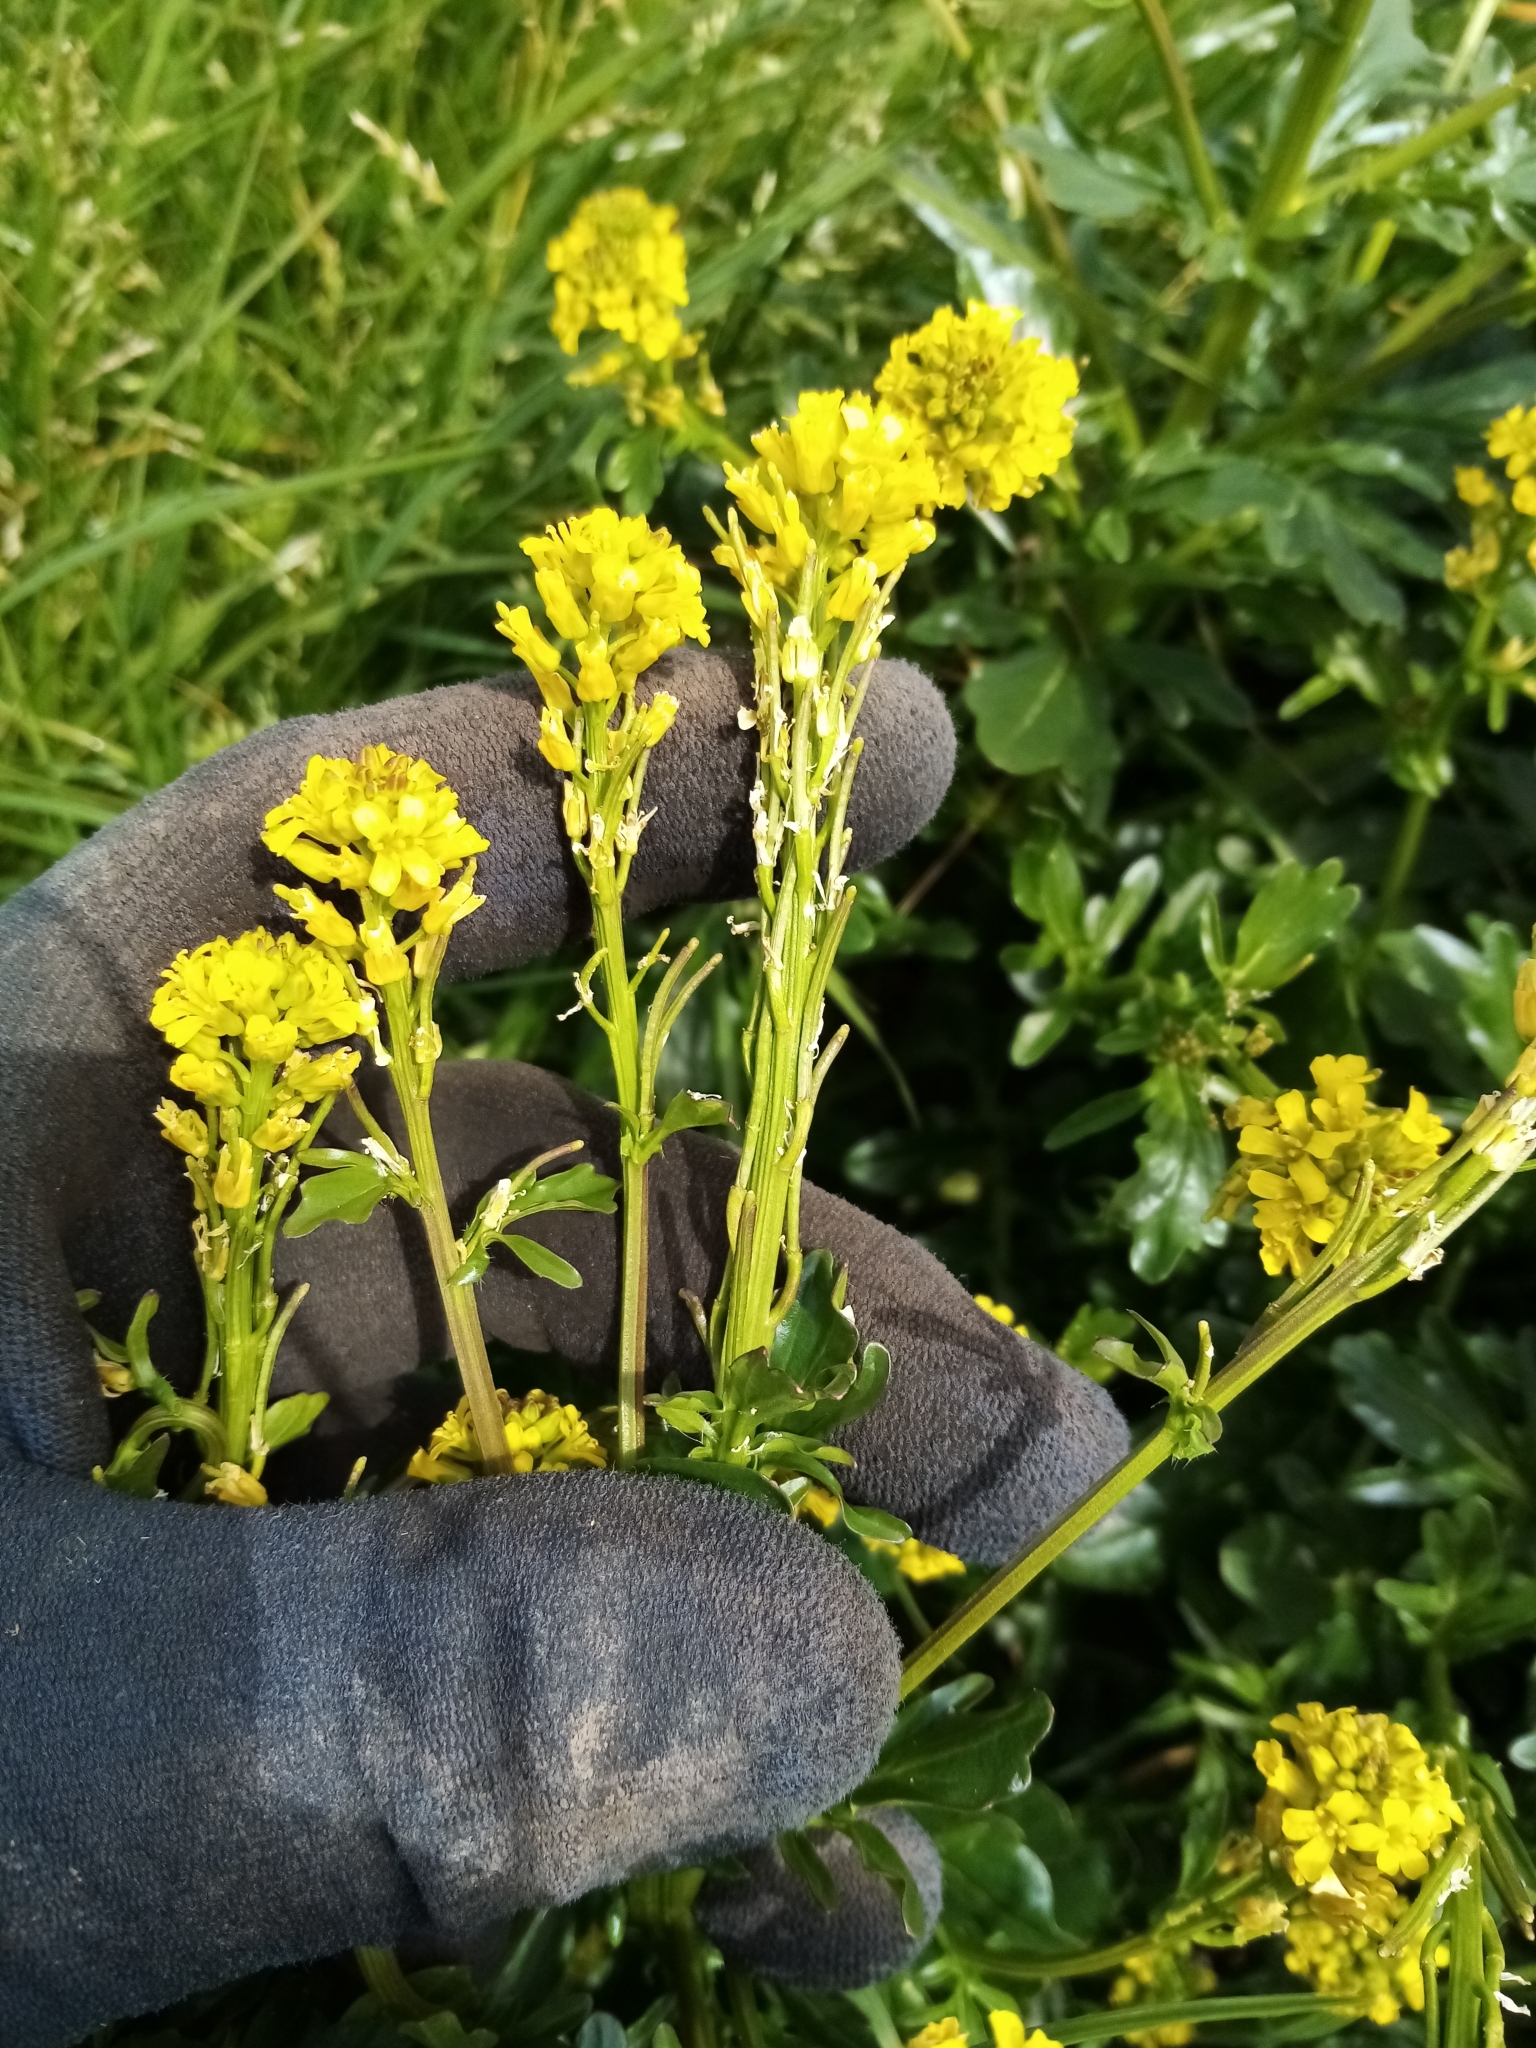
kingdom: Plantae
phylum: Tracheophyta
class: Magnoliopsida
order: Brassicales
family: Brassicaceae
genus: Barbarea
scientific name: Barbarea intermedia
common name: Medium-flowered winter-cress
